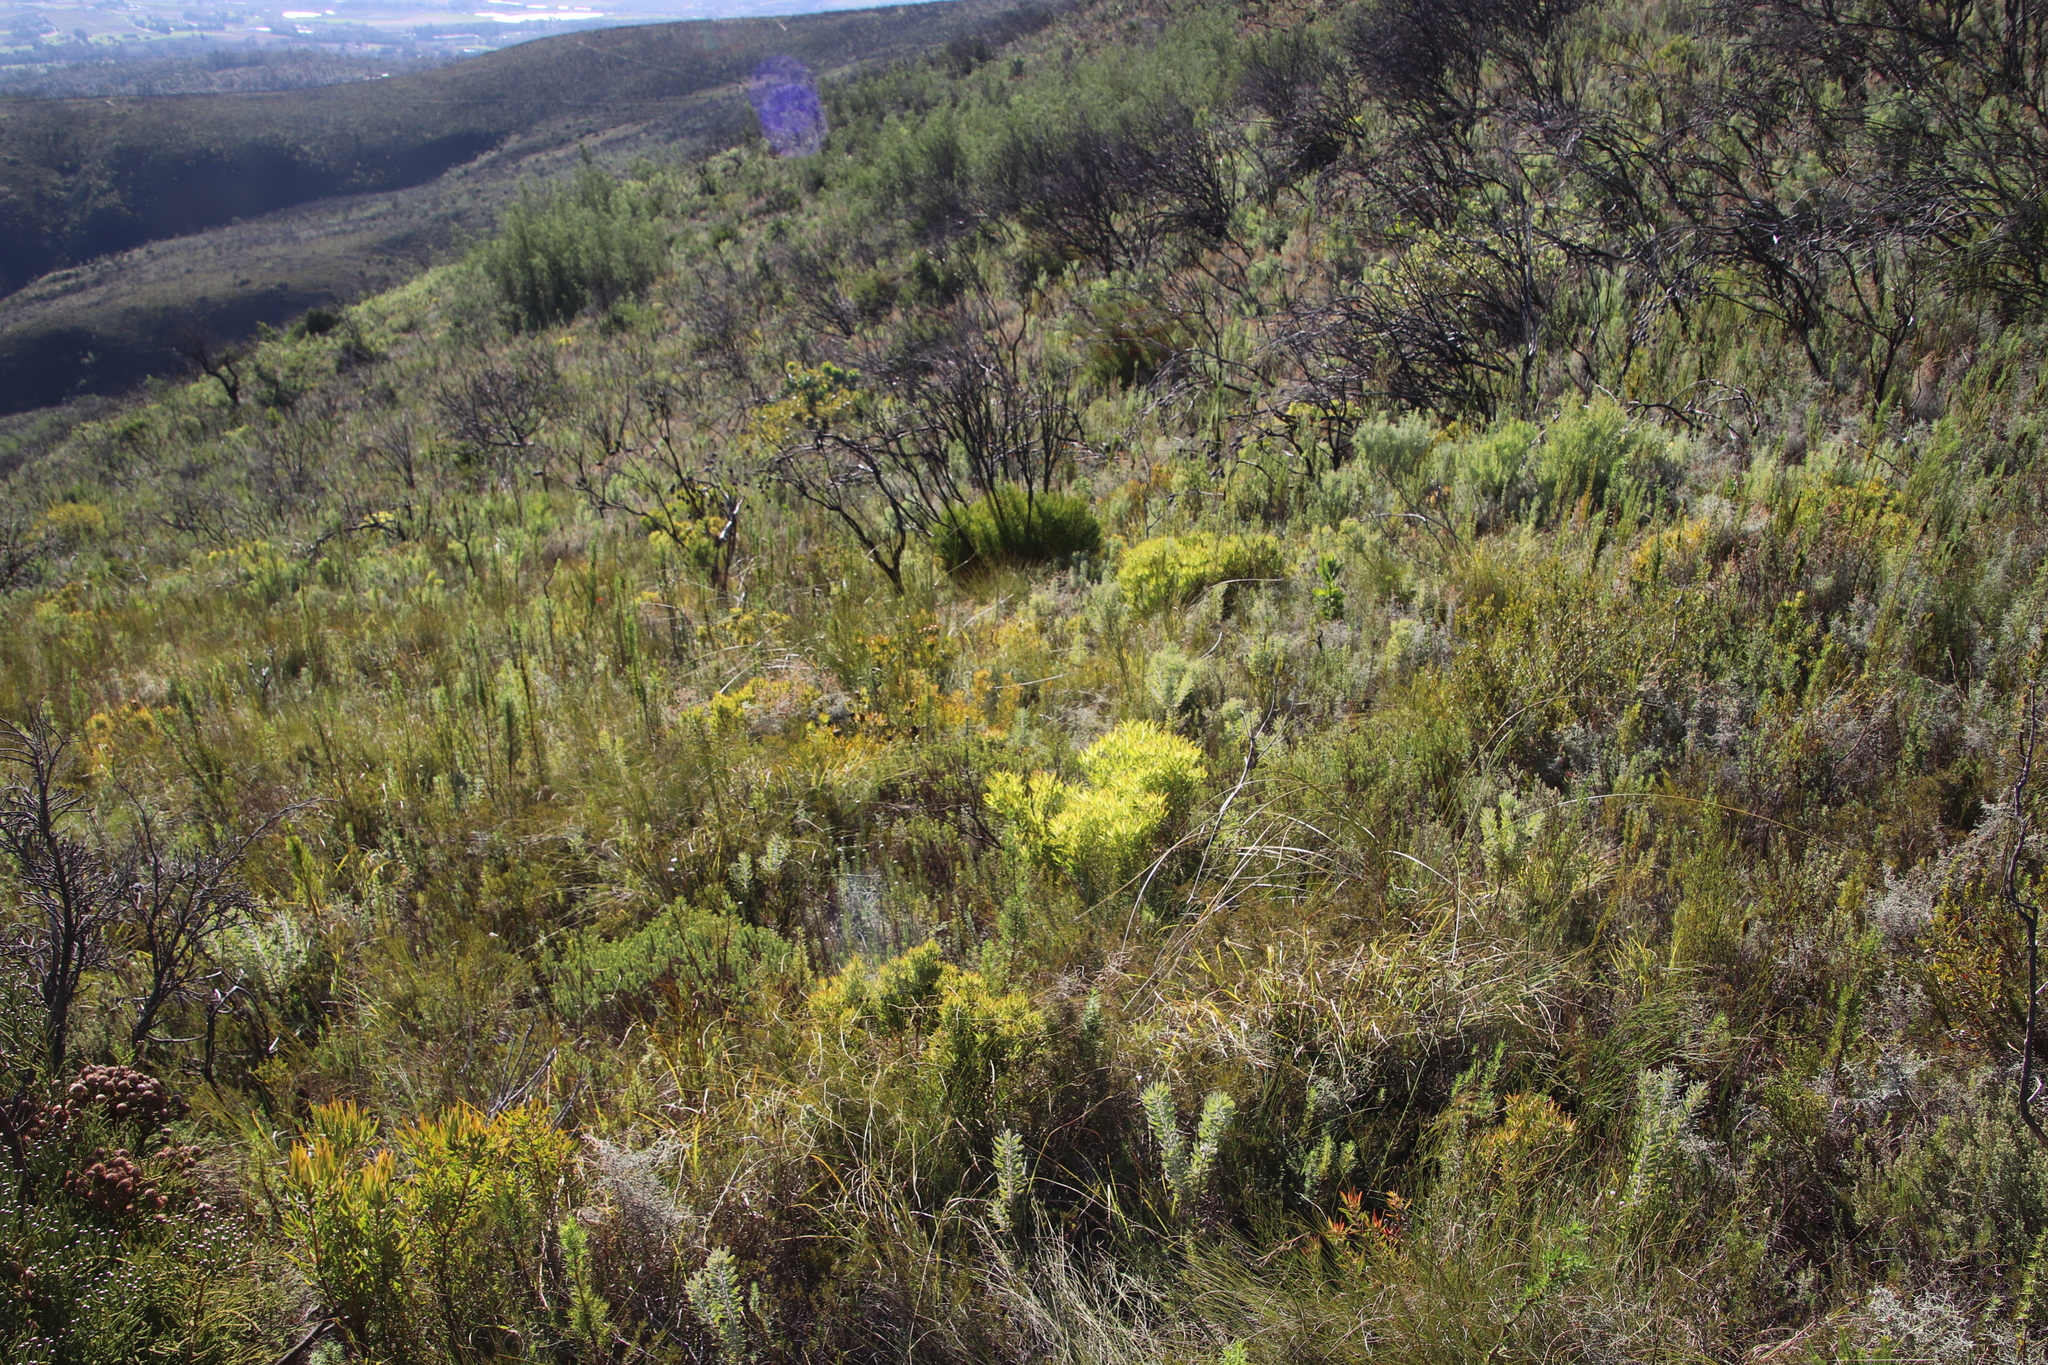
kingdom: Plantae
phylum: Tracheophyta
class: Magnoliopsida
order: Proteales
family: Proteaceae
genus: Leucadendron
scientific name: Leucadendron salignum
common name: Common sunshine conebush
